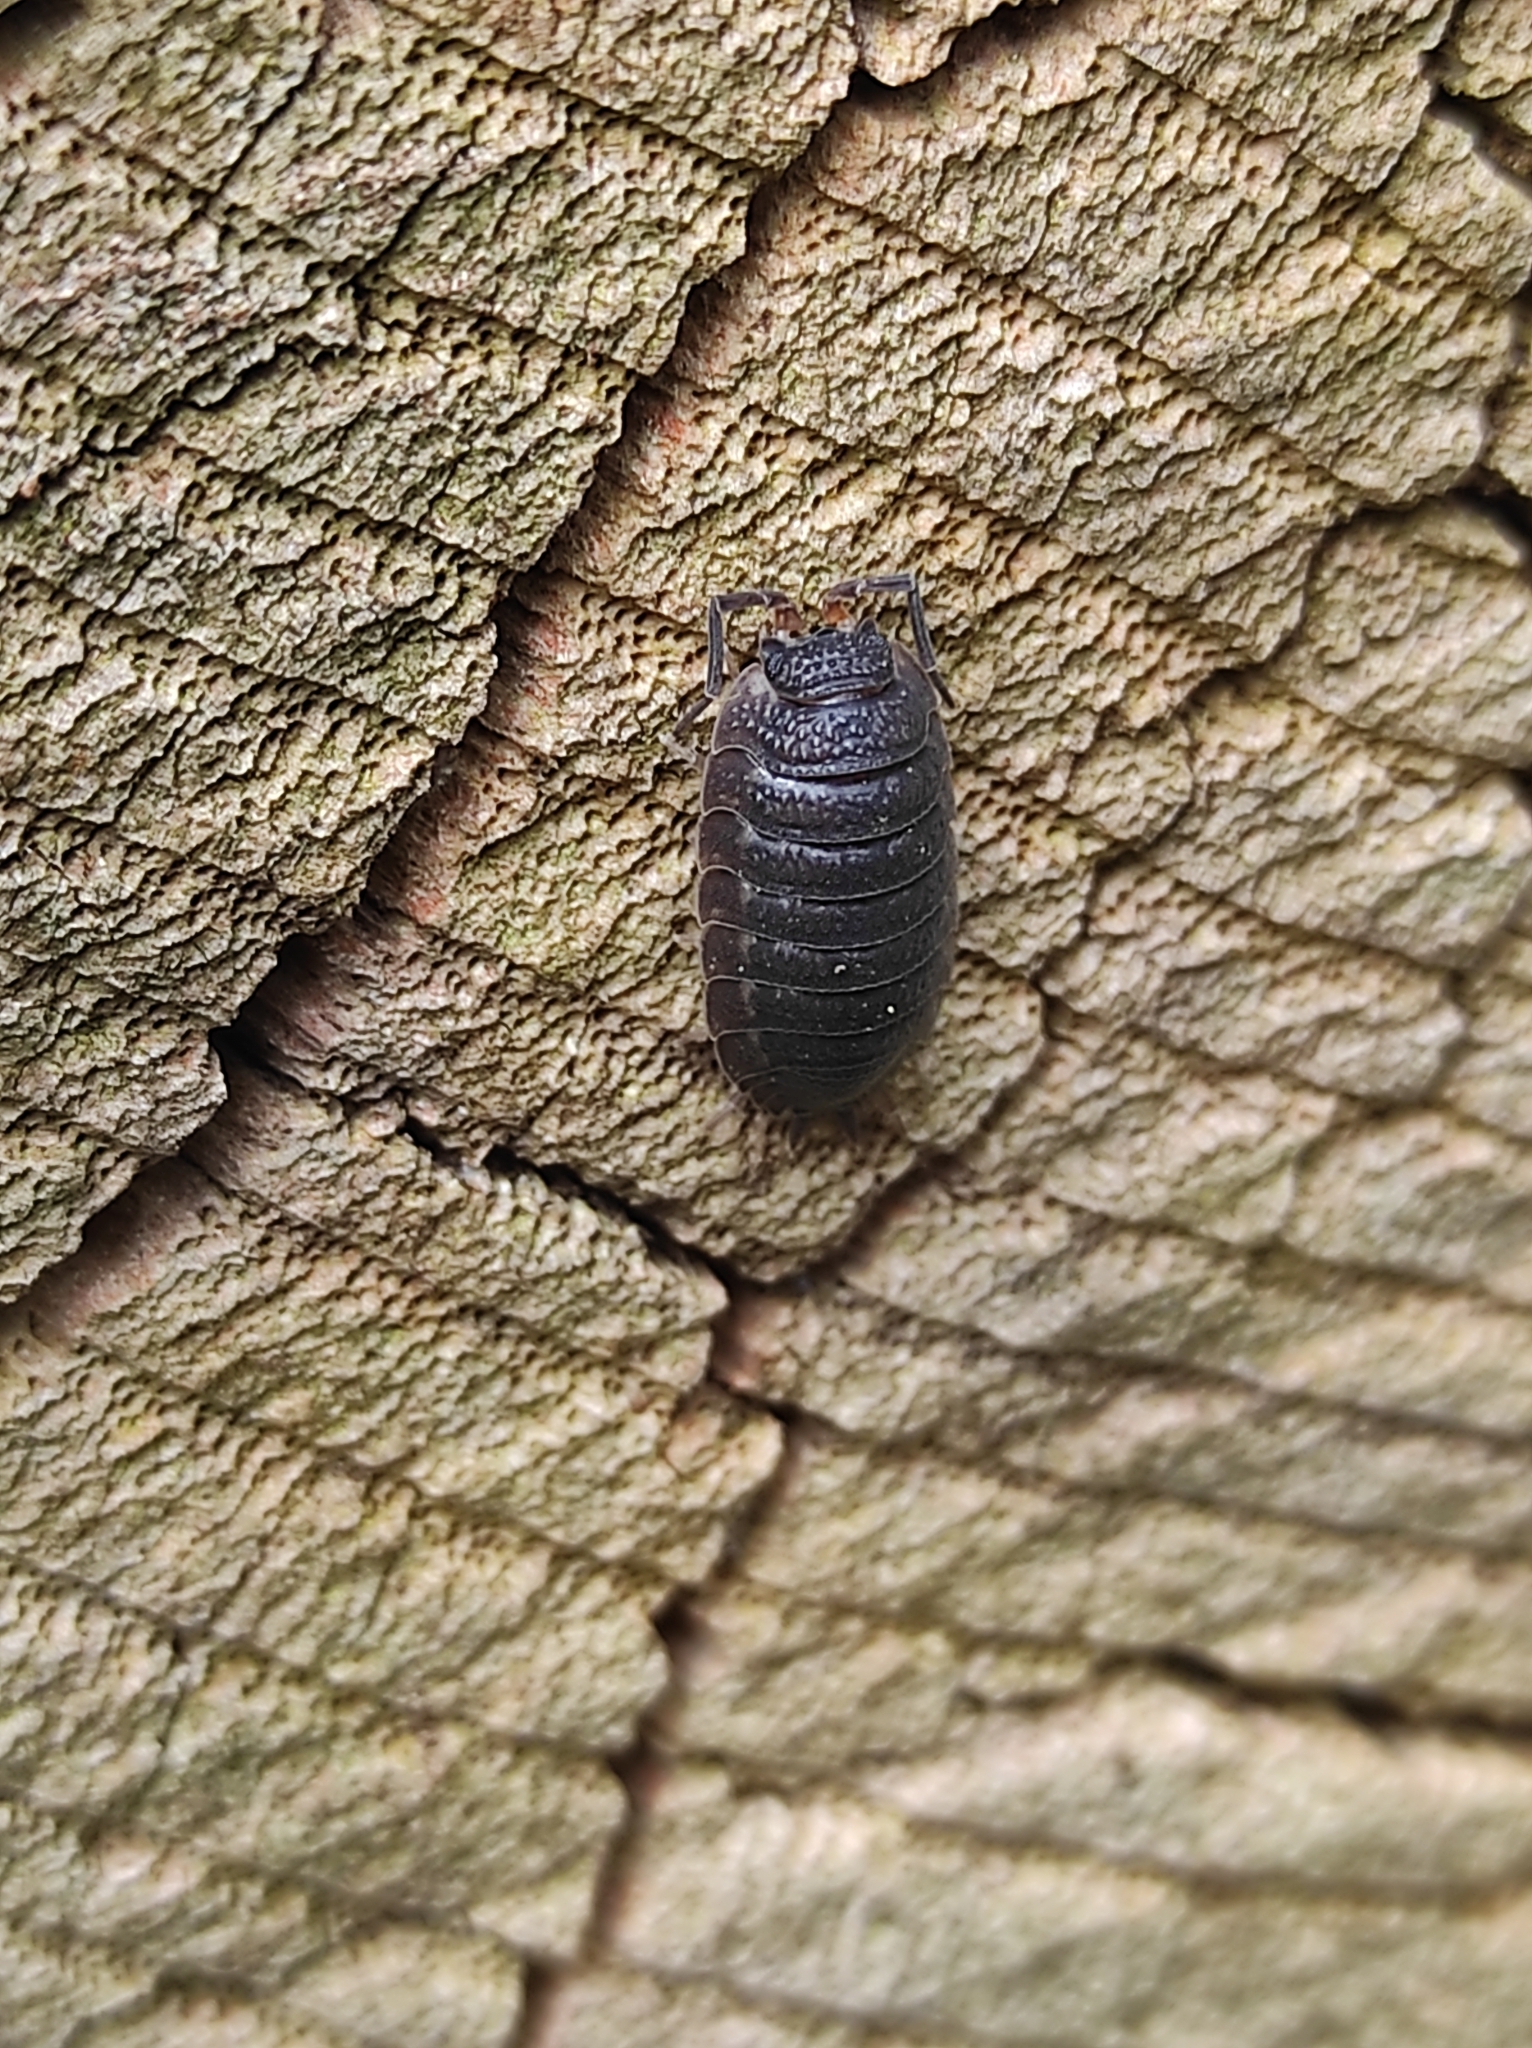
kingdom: Animalia
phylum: Arthropoda
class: Malacostraca
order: Isopoda
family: Porcellionidae
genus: Porcellio
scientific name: Porcellio scaber
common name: Common rough woodlouse
